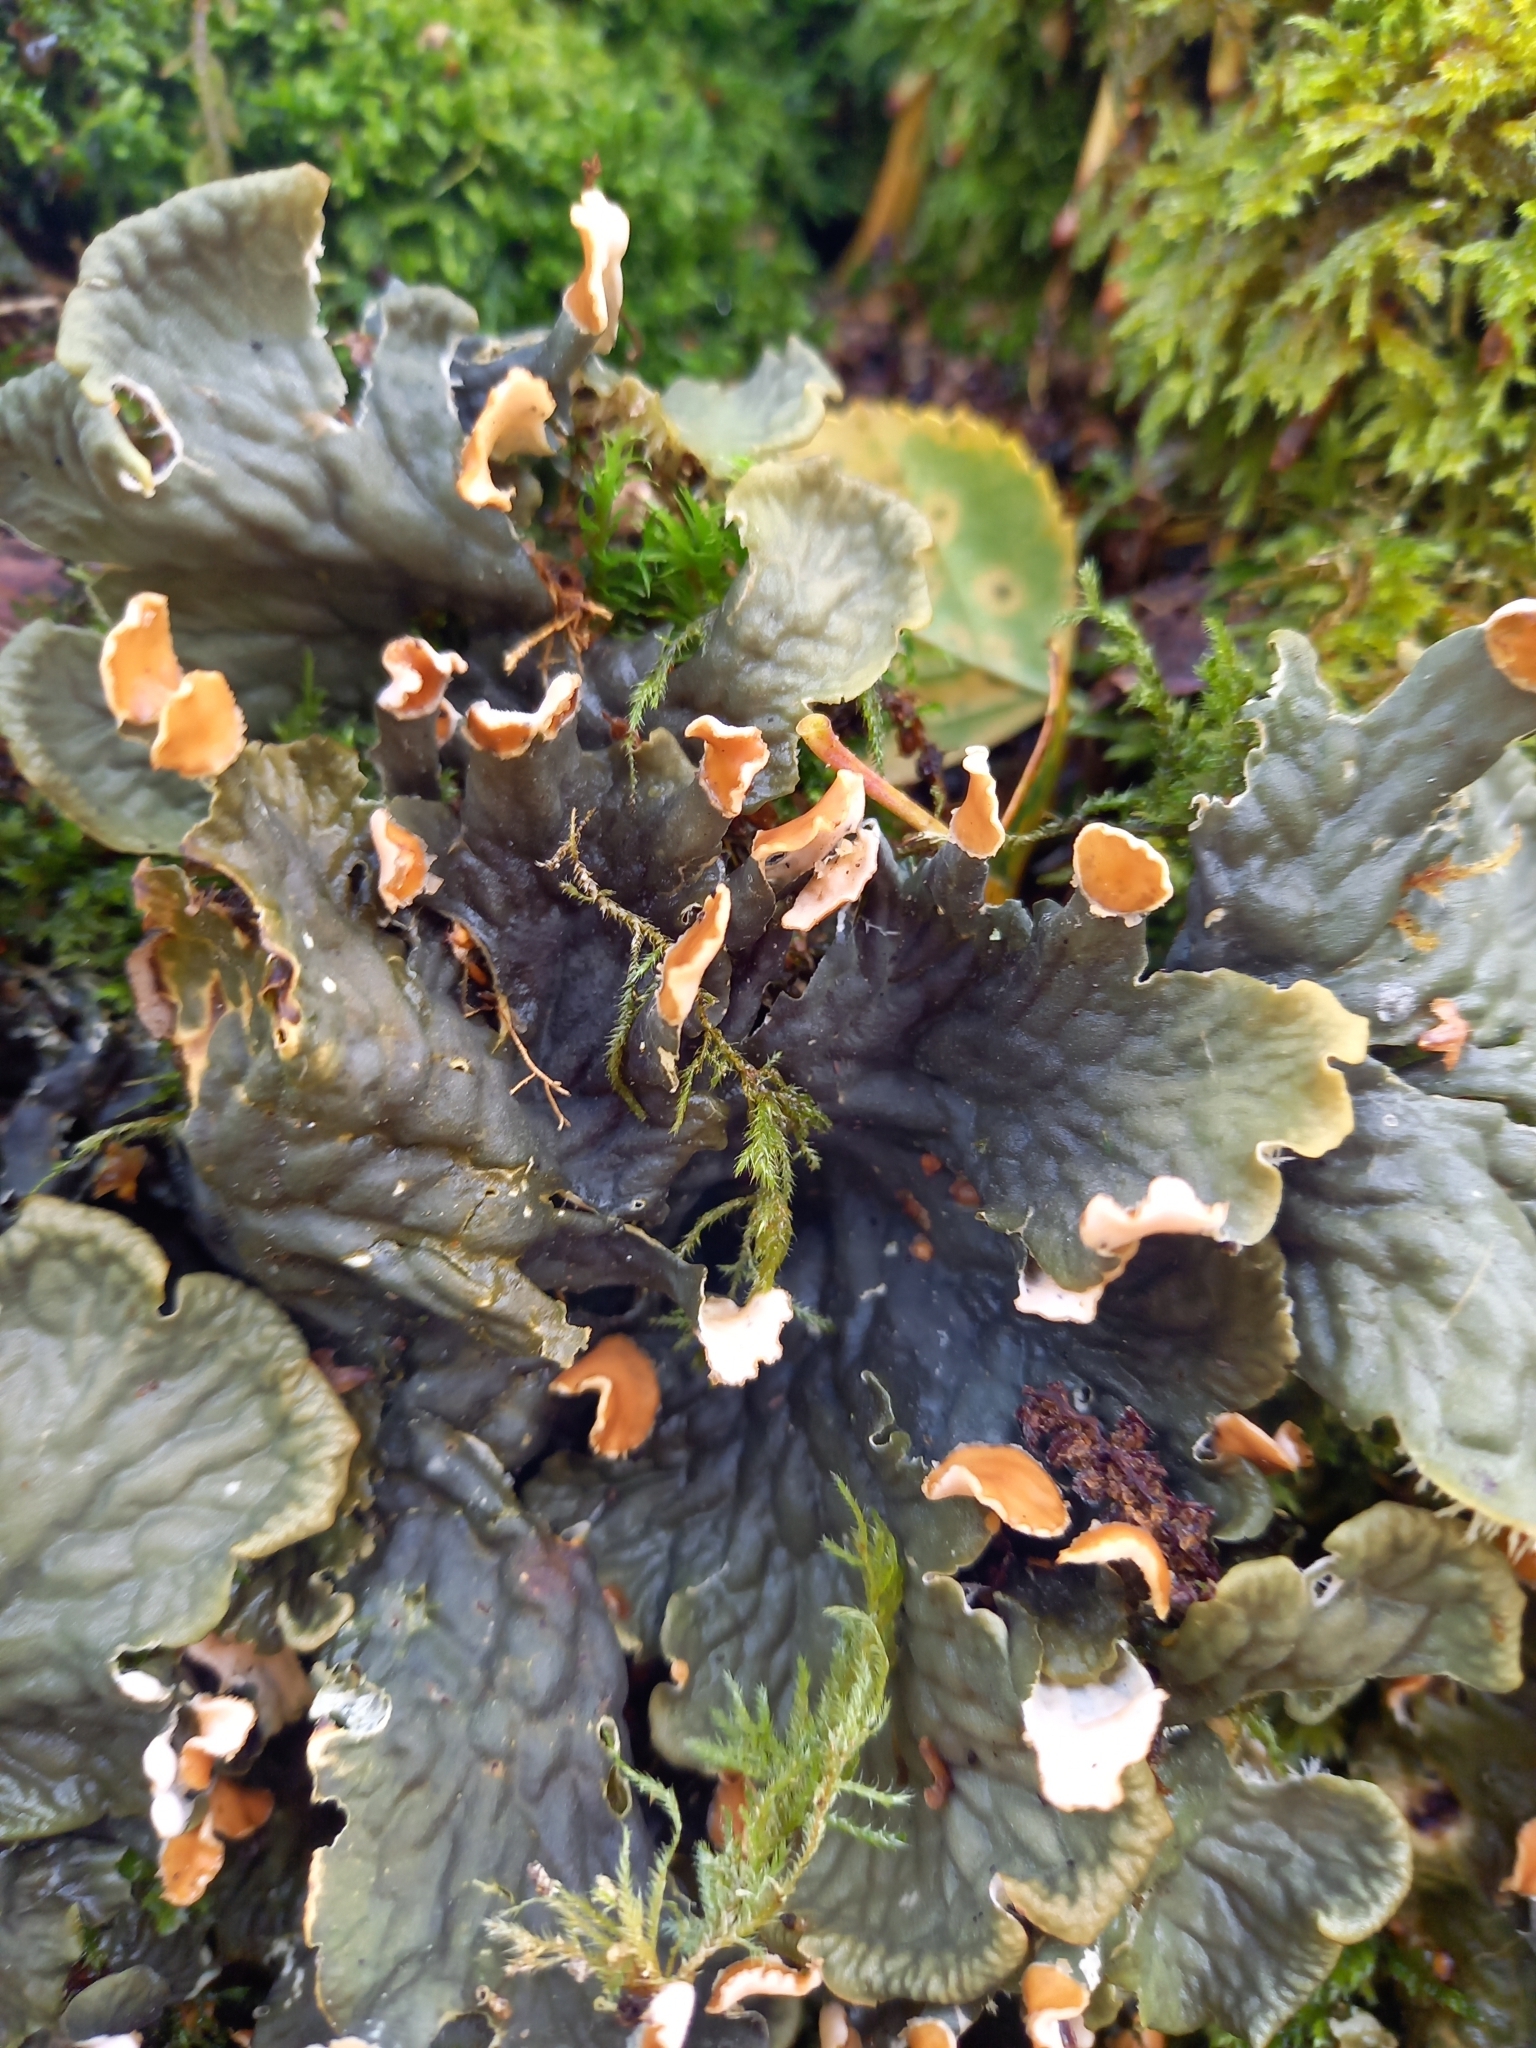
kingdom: Fungi
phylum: Ascomycota
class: Lecanoromycetes
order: Peltigerales
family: Peltigeraceae
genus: Peltigera
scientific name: Peltigera membranacea
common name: Membranous pelt lichen
